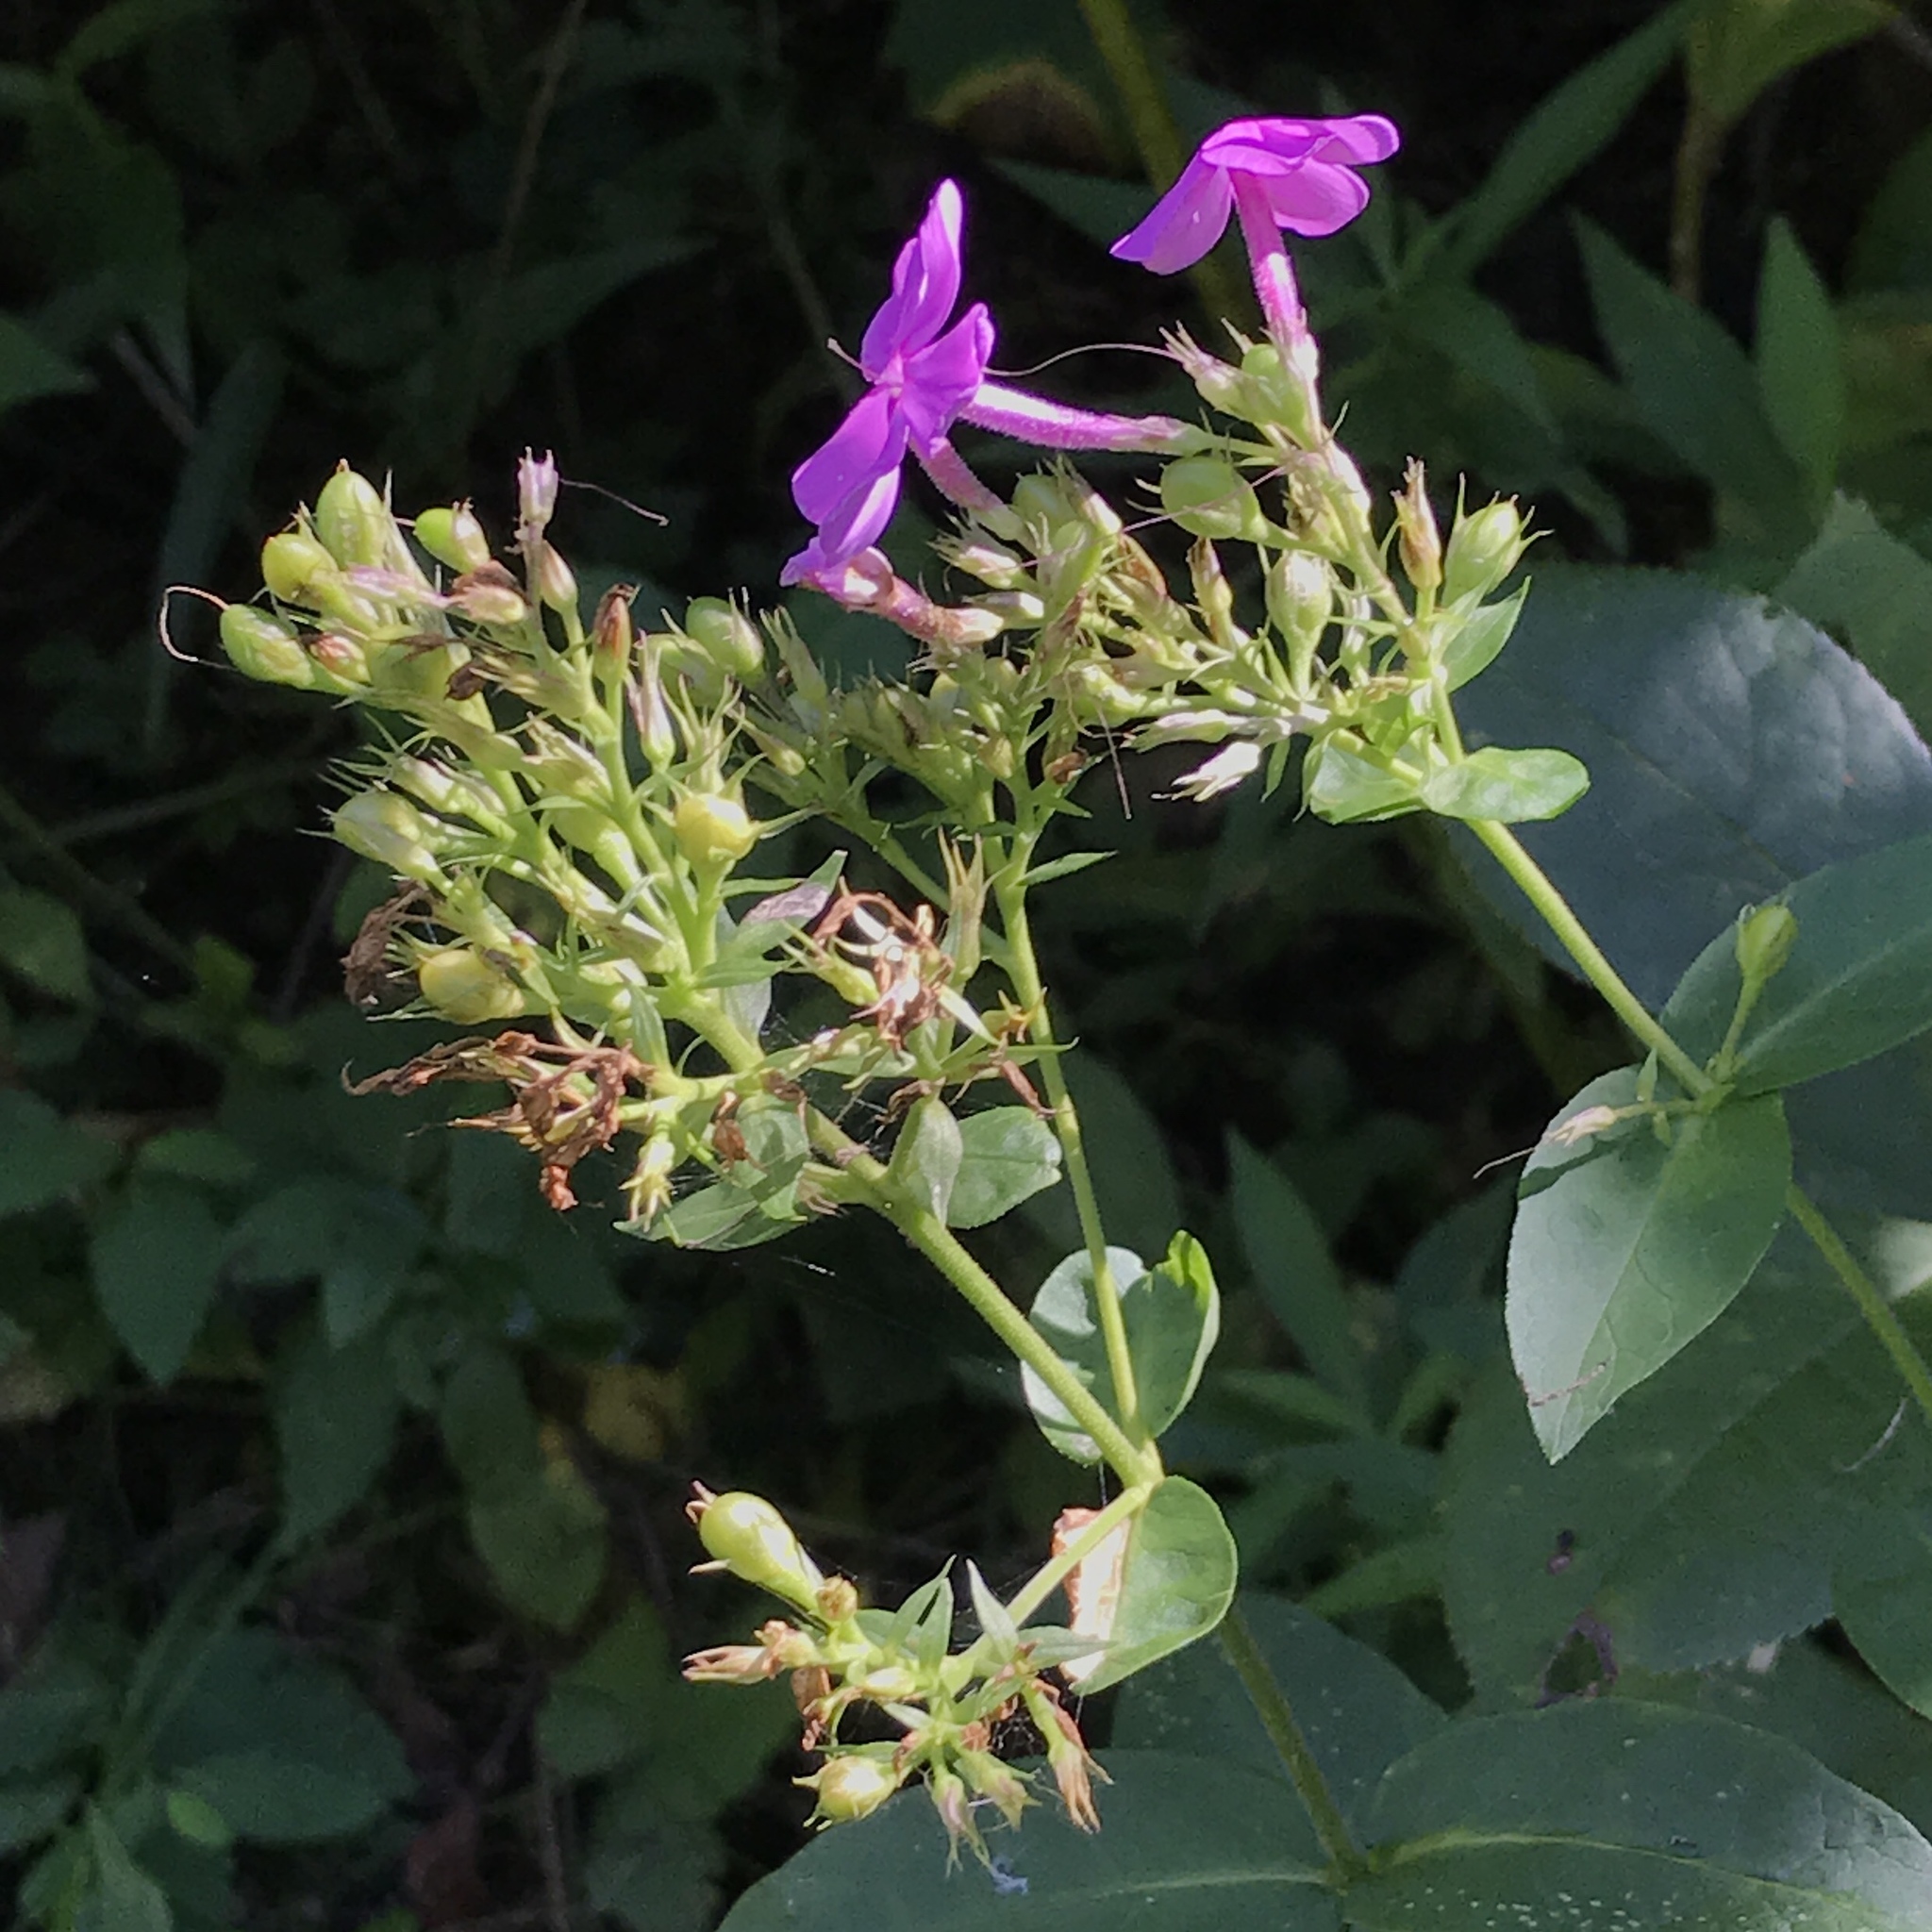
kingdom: Plantae
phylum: Tracheophyta
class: Magnoliopsida
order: Ericales
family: Polemoniaceae
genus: Phlox
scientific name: Phlox paniculata
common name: Fall phlox
